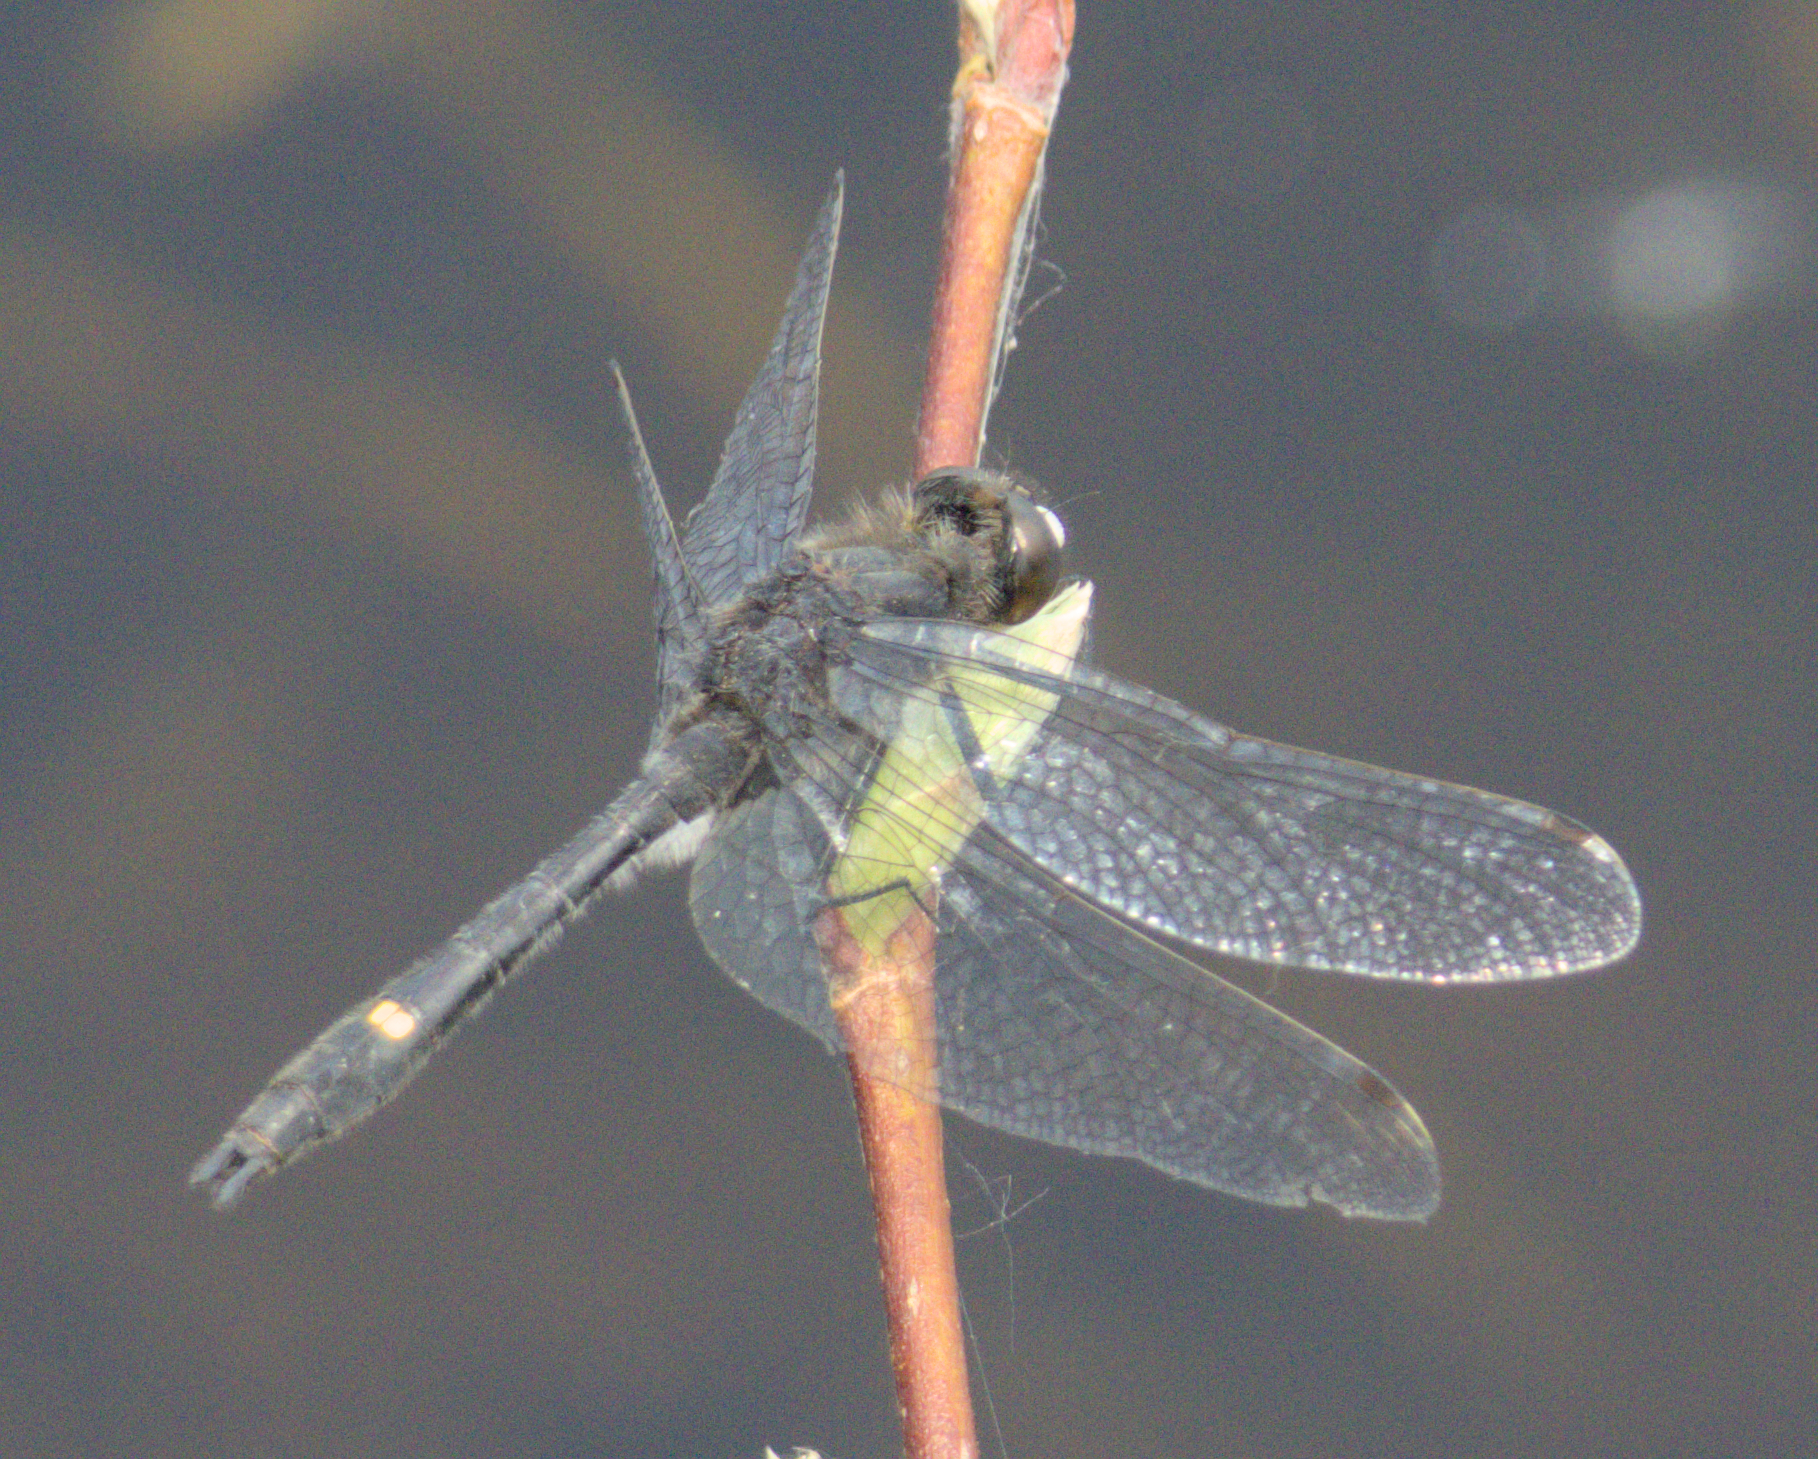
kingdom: Animalia
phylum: Arthropoda
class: Insecta
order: Odonata
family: Libellulidae
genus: Leucorrhinia
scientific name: Leucorrhinia intacta
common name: Dot-tailed whiteface
